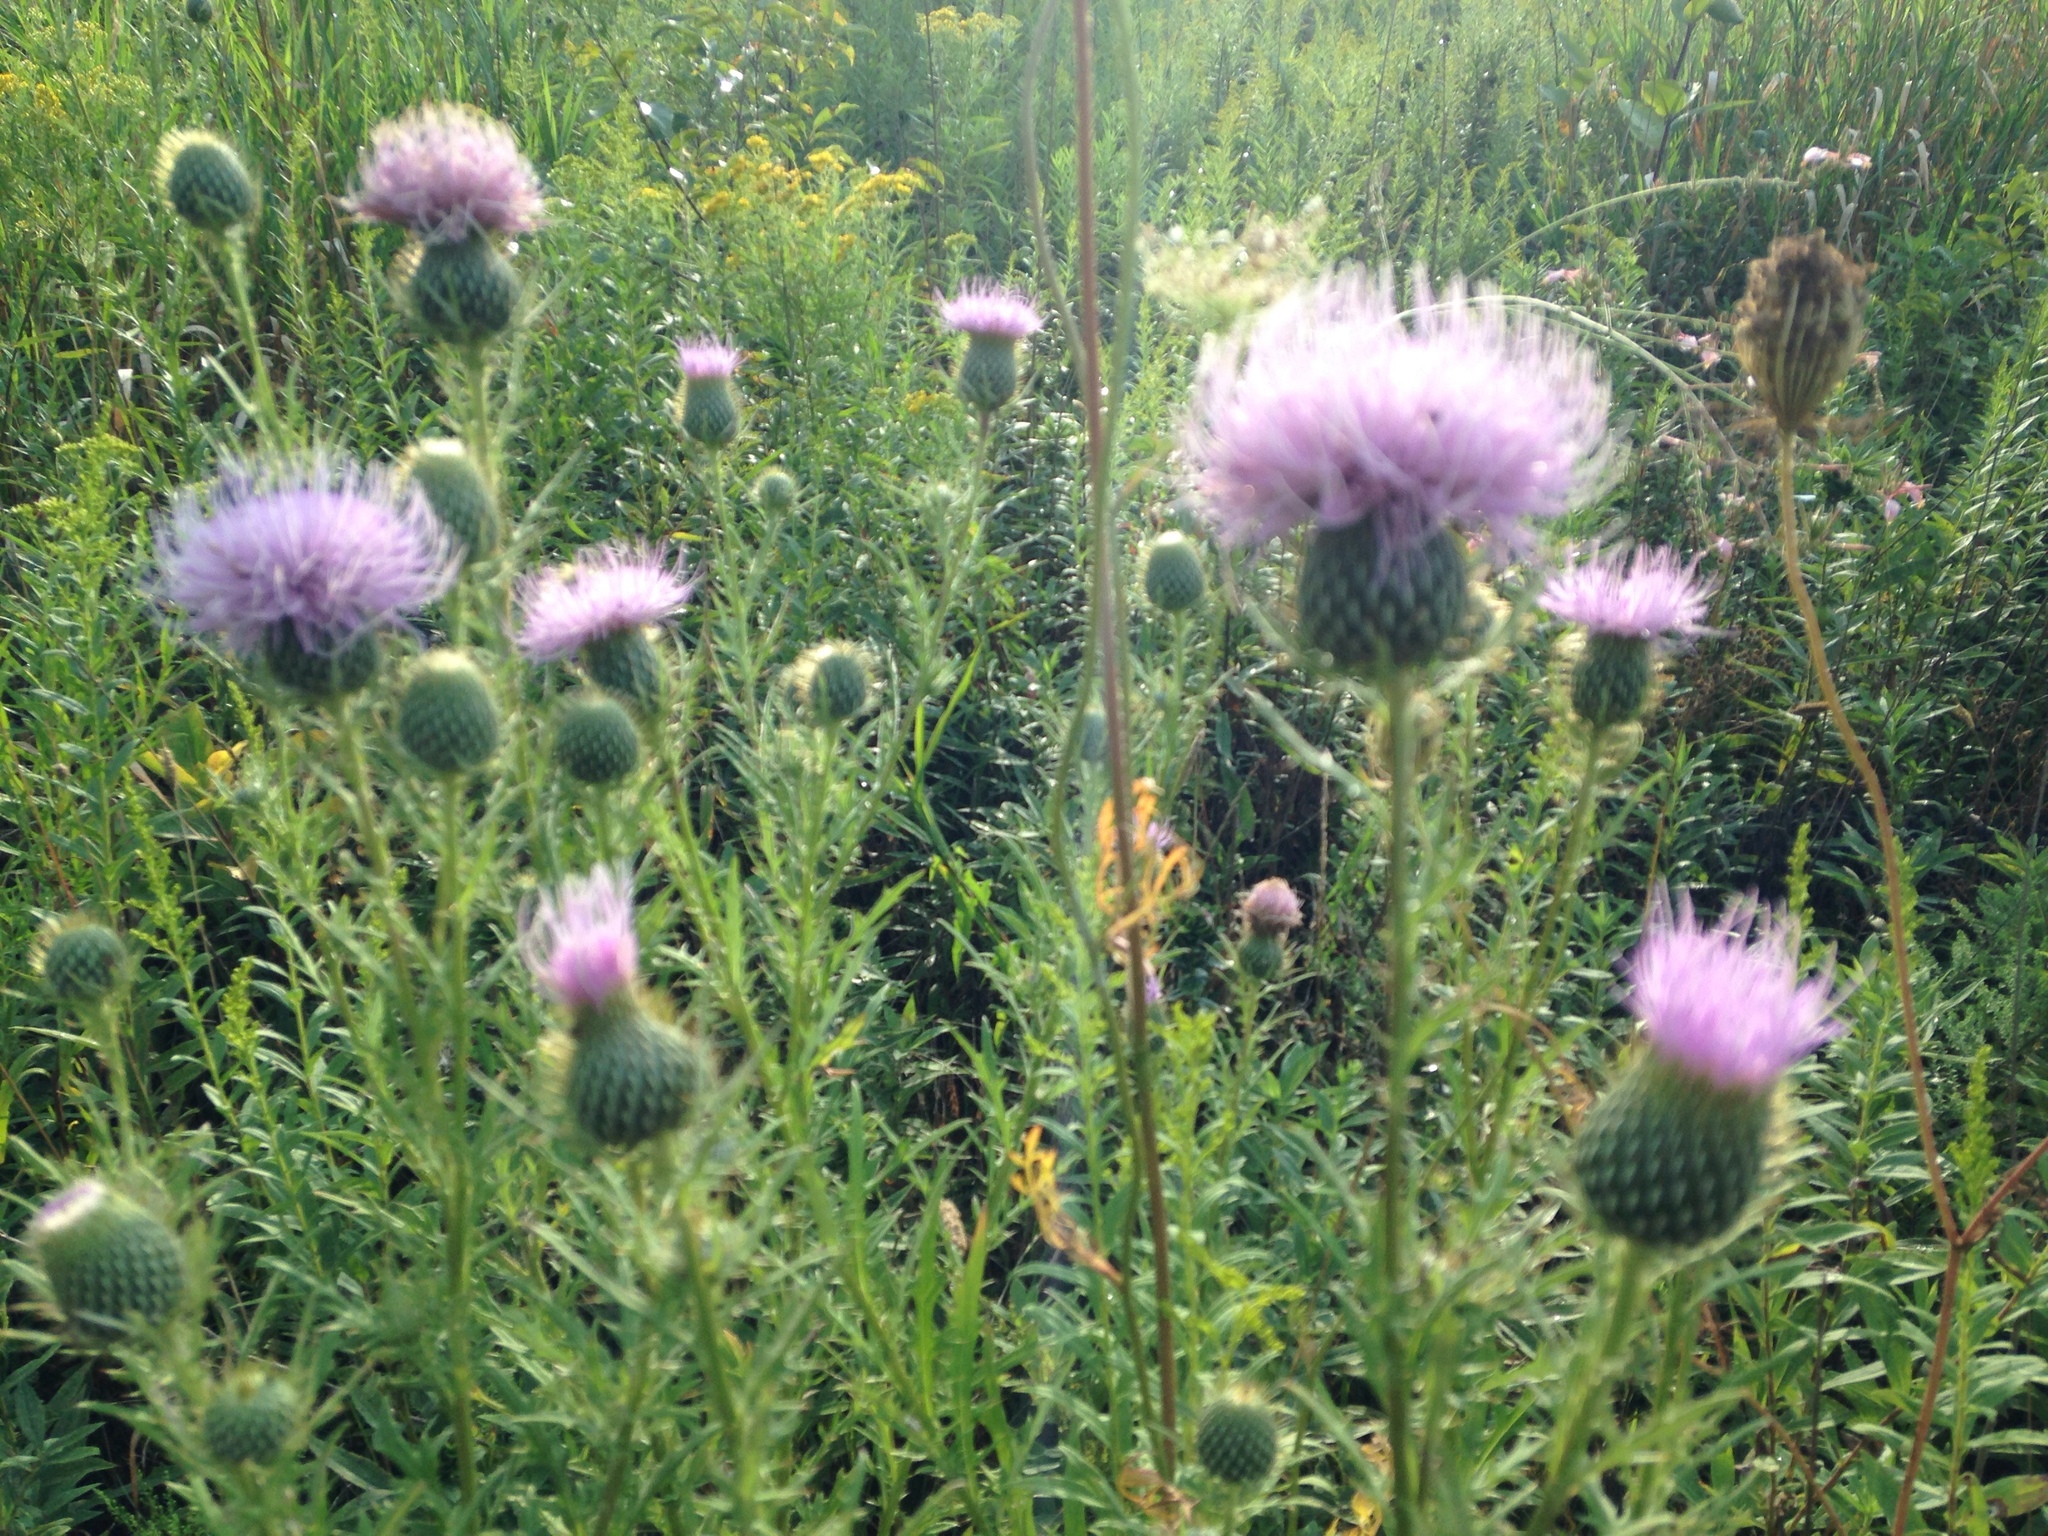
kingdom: Plantae
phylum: Tracheophyta
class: Magnoliopsida
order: Asterales
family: Asteraceae
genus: Cirsium
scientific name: Cirsium discolor
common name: Field thistle
